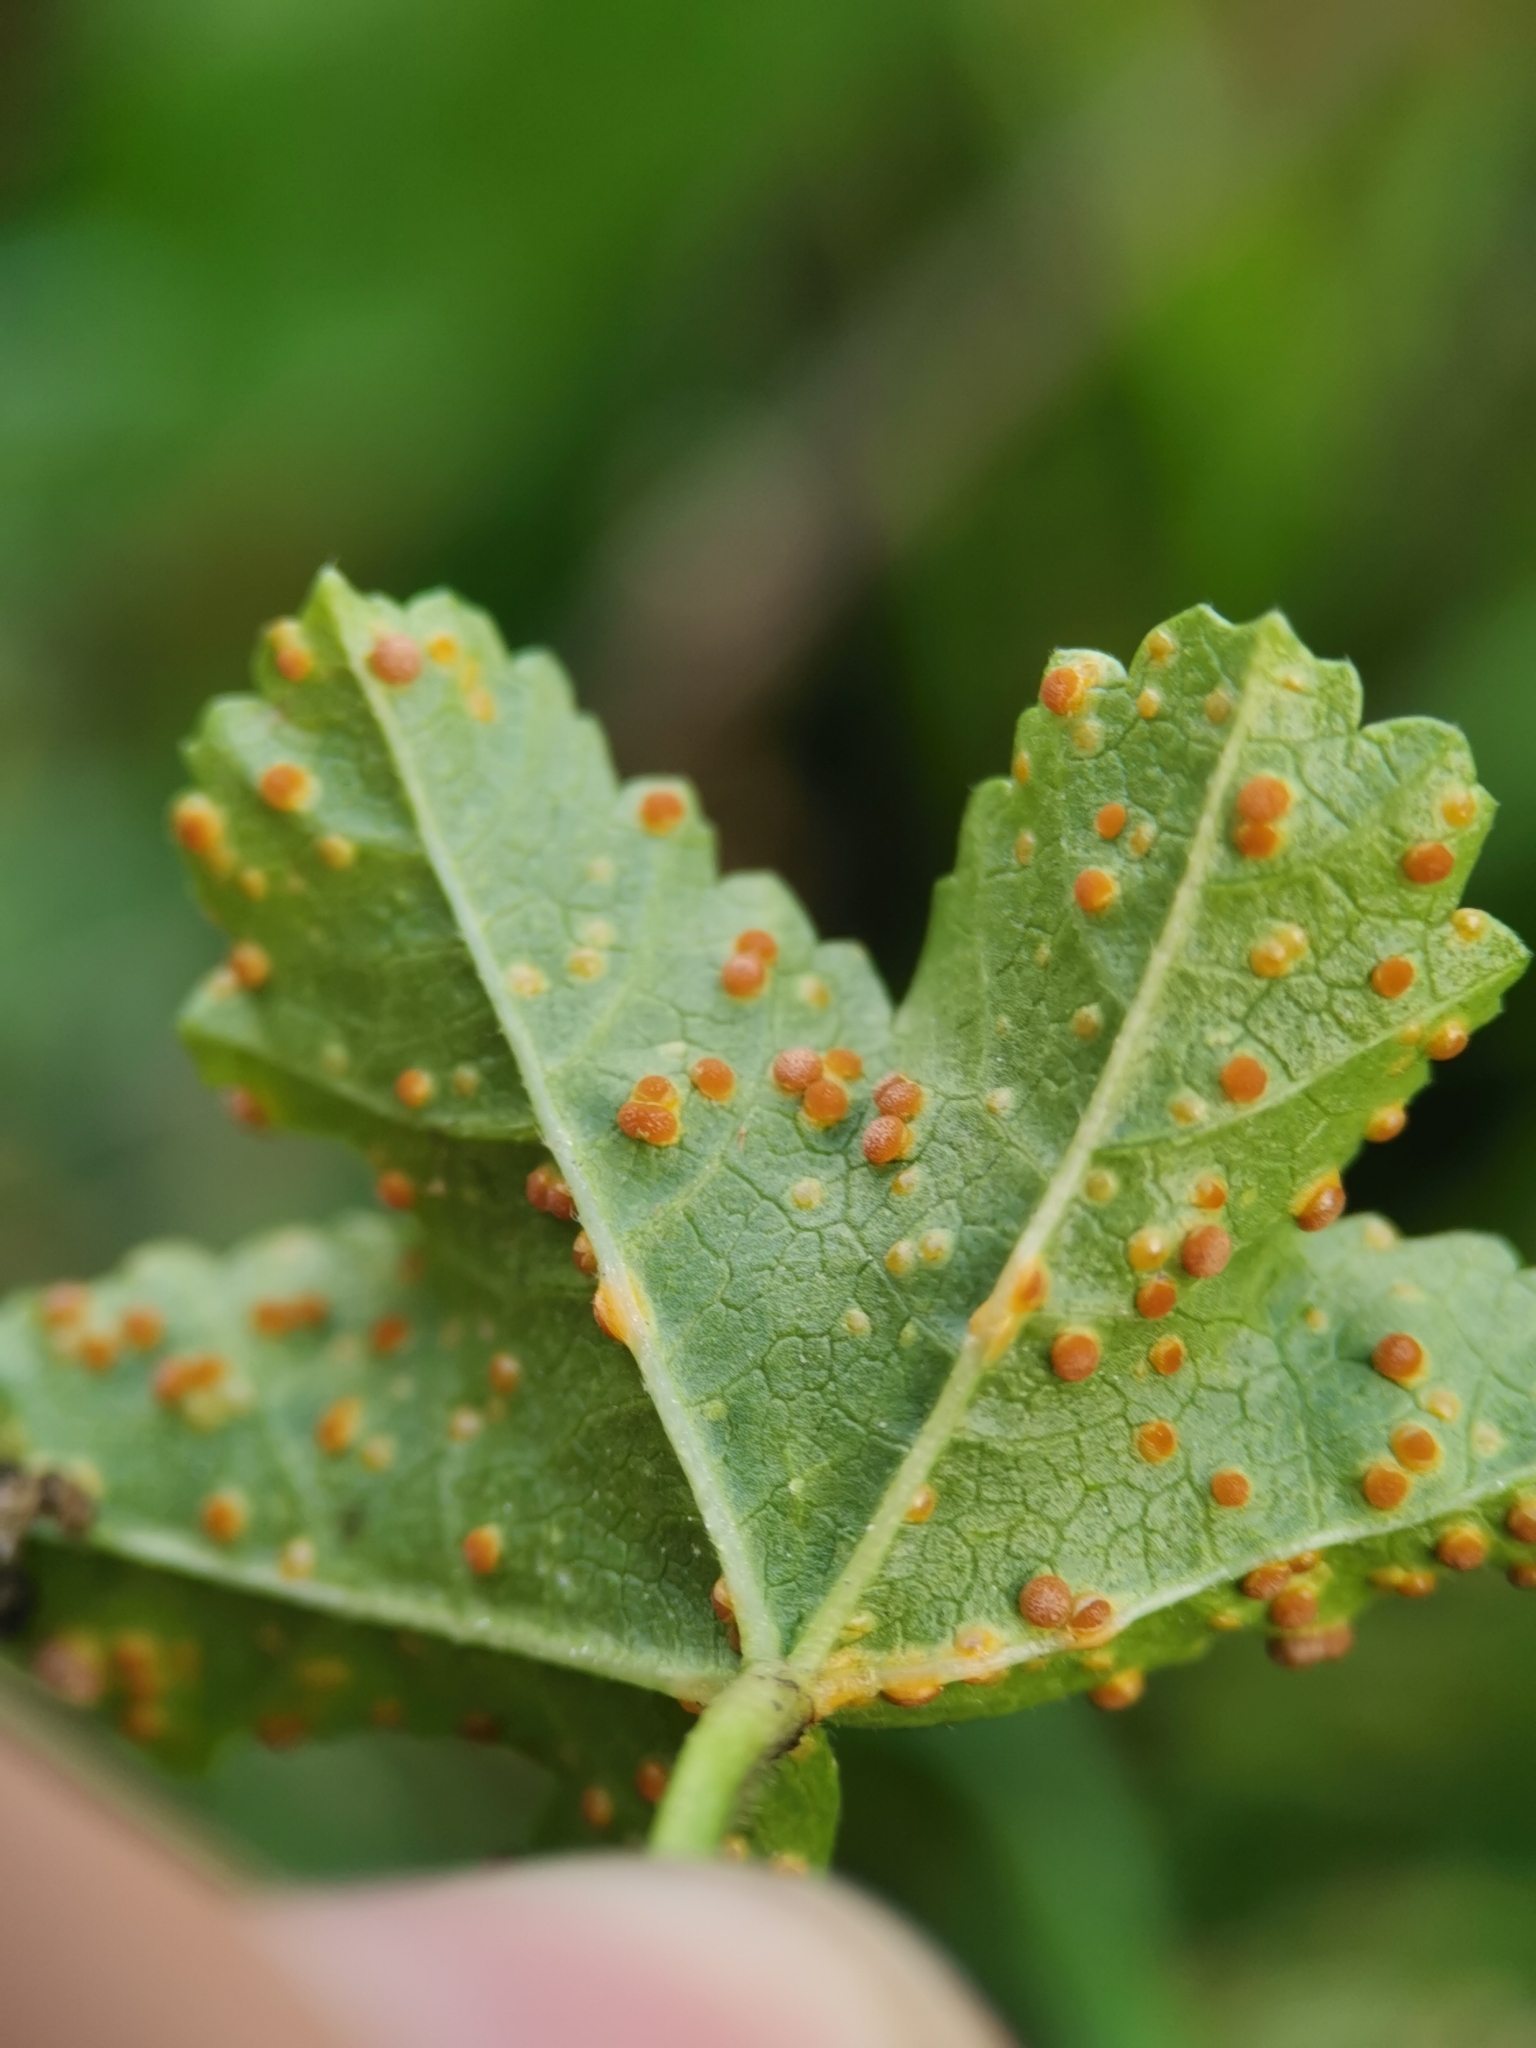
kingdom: Fungi
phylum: Basidiomycota
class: Pucciniomycetes
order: Pucciniales
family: Pucciniaceae
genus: Puccinia
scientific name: Puccinia malvacearum
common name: Hollyhock rust
